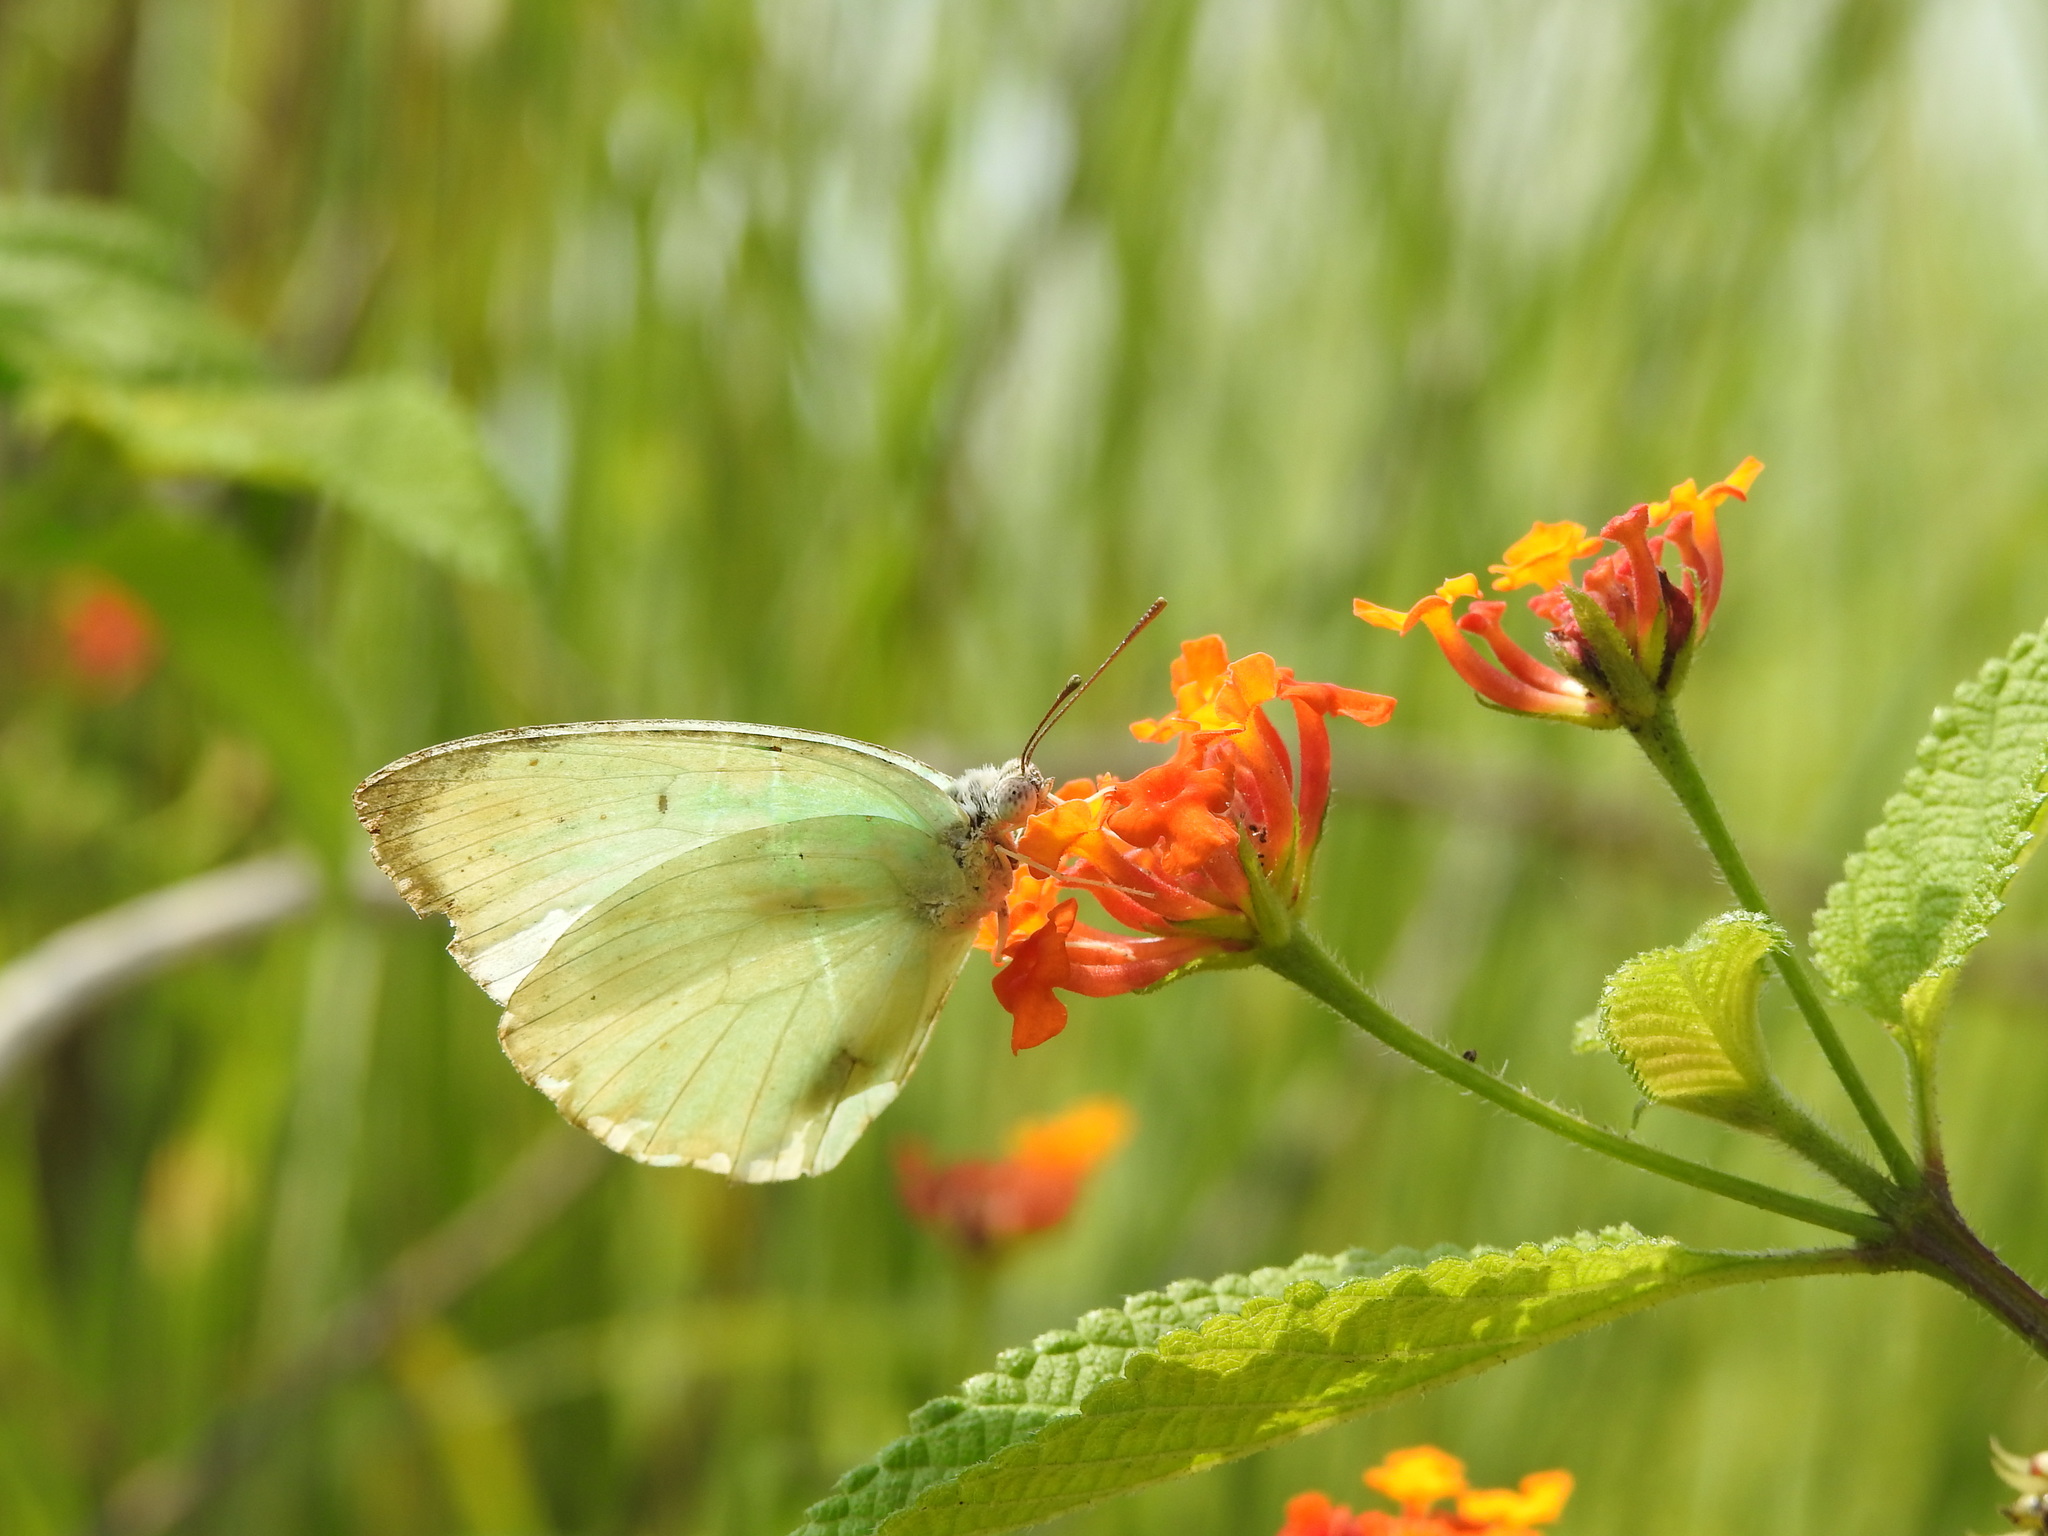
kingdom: Animalia
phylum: Arthropoda
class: Insecta
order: Lepidoptera
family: Pieridae
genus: Catopsilia
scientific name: Catopsilia pomona
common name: Common emigrant
